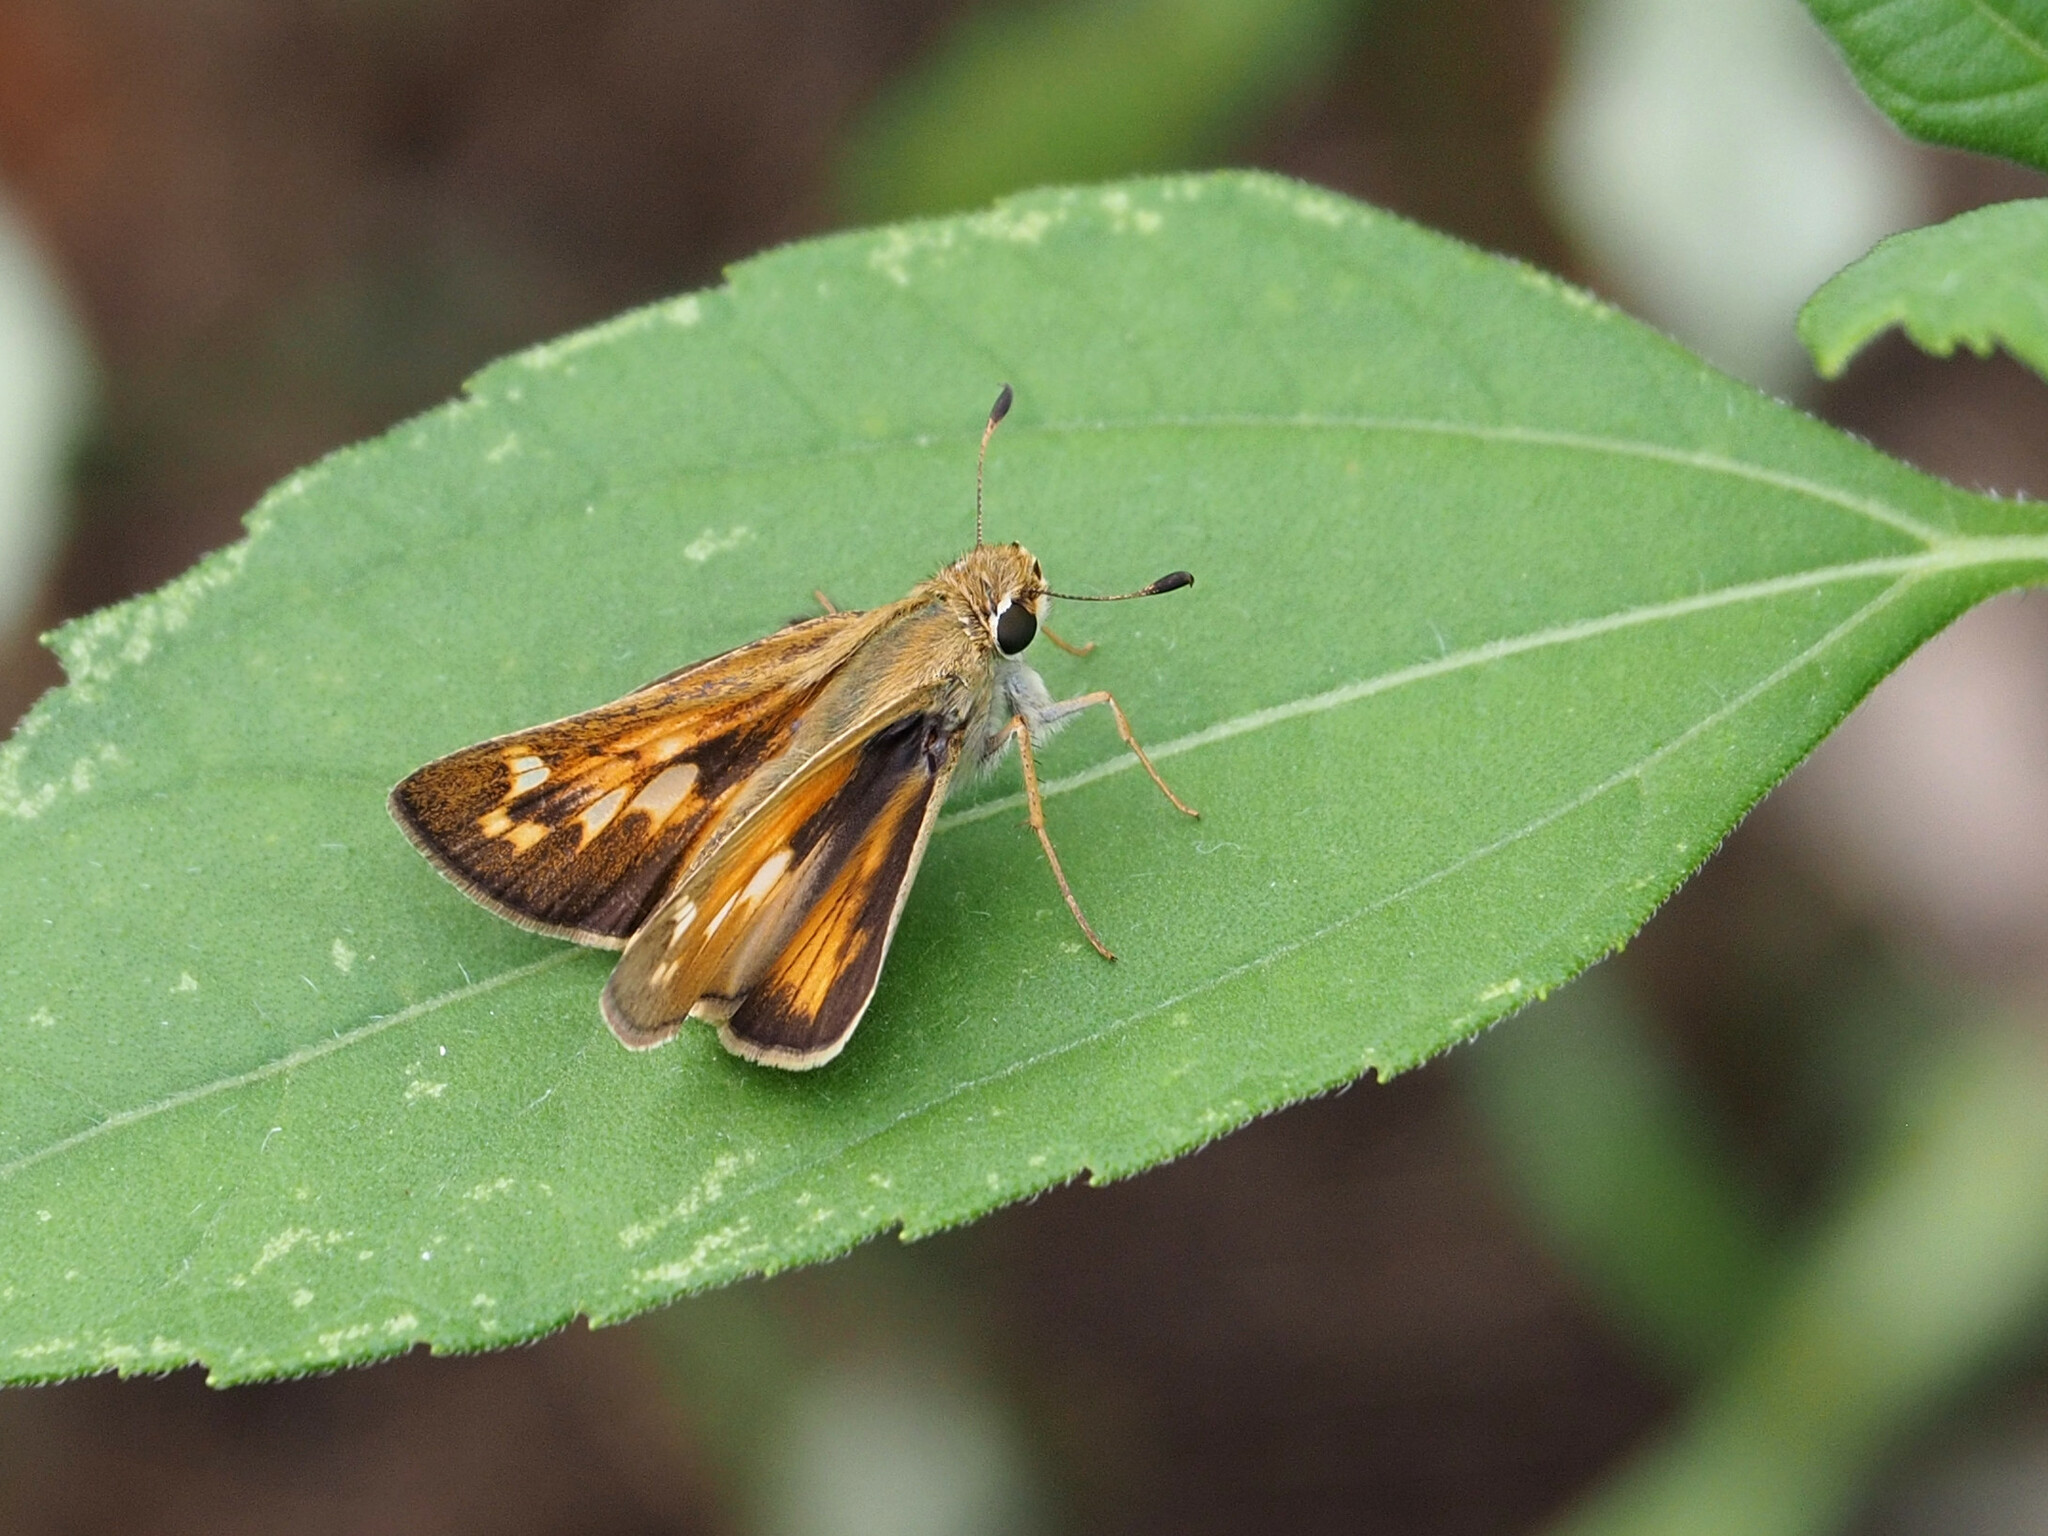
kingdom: Animalia
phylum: Arthropoda
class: Insecta
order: Lepidoptera
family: Hesperiidae
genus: Atalopedes
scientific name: Atalopedes
